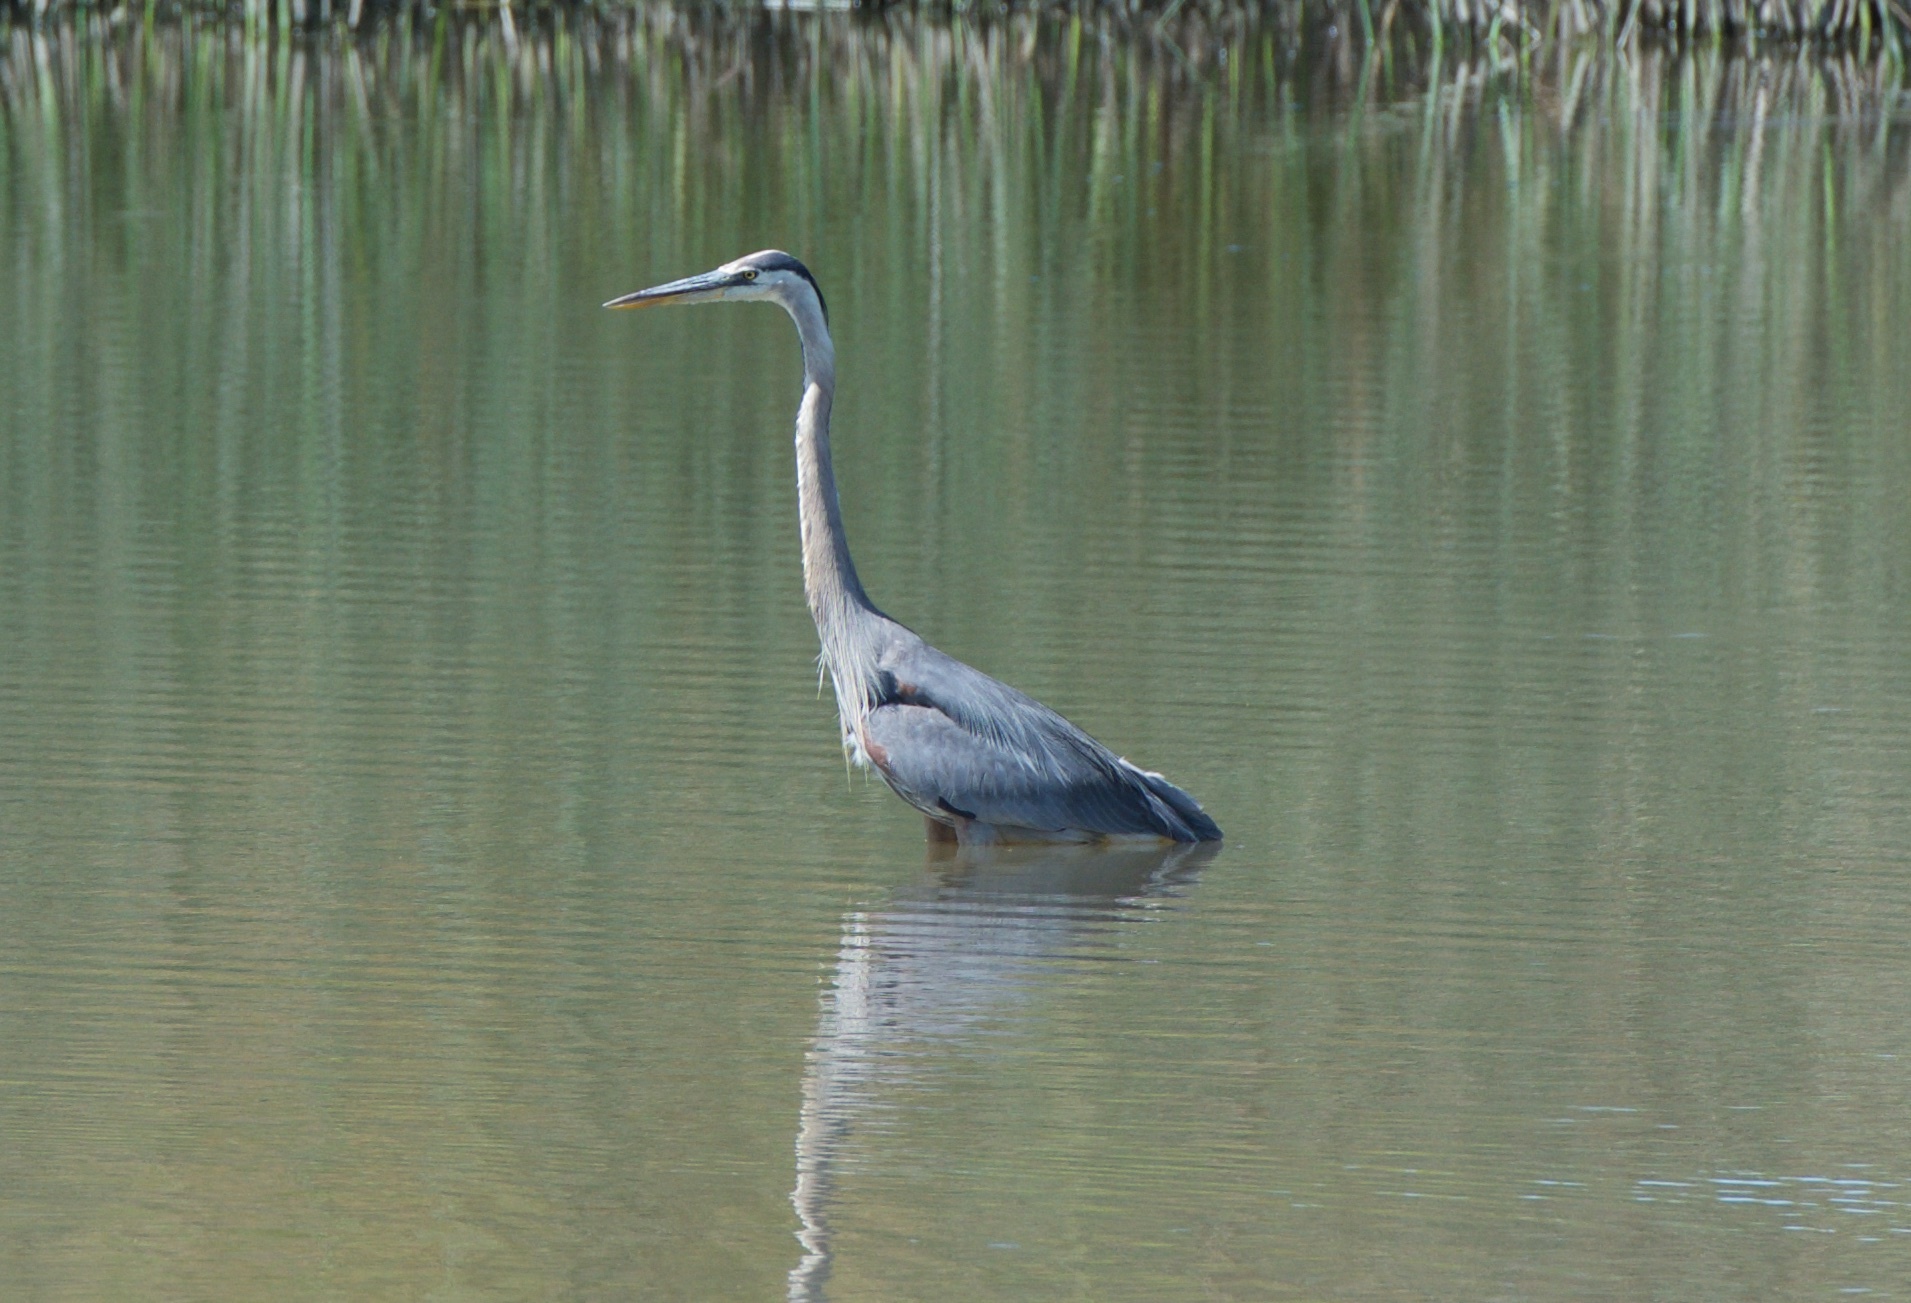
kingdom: Animalia
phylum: Chordata
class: Aves
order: Pelecaniformes
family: Ardeidae
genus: Ardea
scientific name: Ardea herodias
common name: Great blue heron
